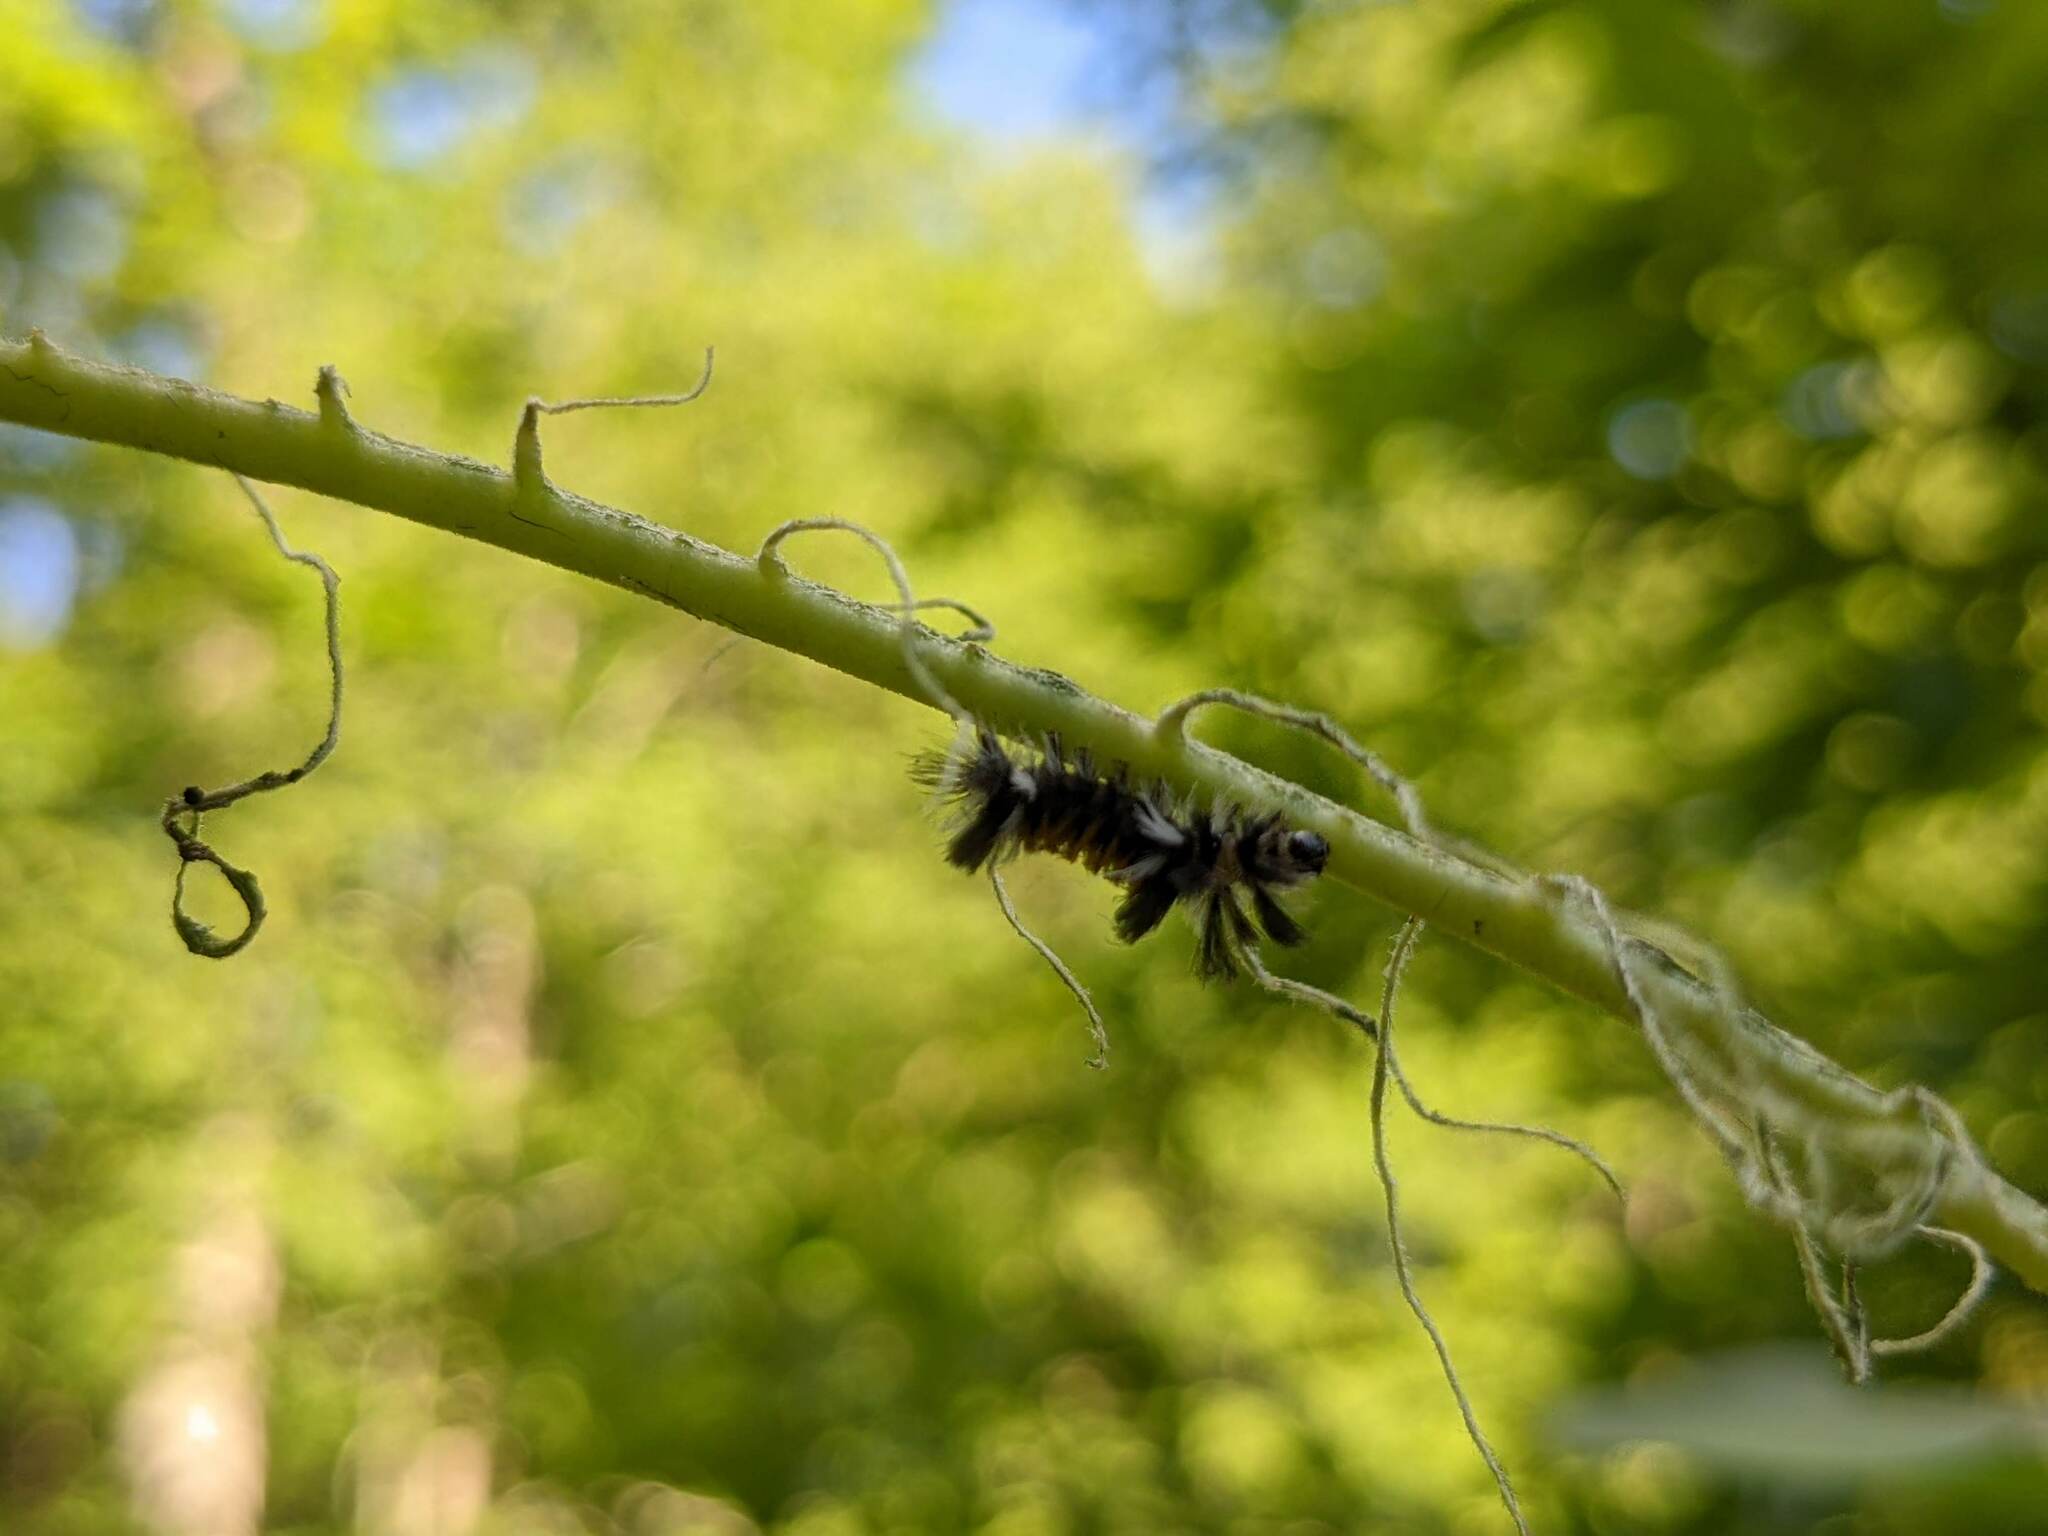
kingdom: Animalia
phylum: Arthropoda
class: Insecta
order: Lepidoptera
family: Erebidae
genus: Euchaetes
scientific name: Euchaetes egle
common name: Milkweed tussock moth
